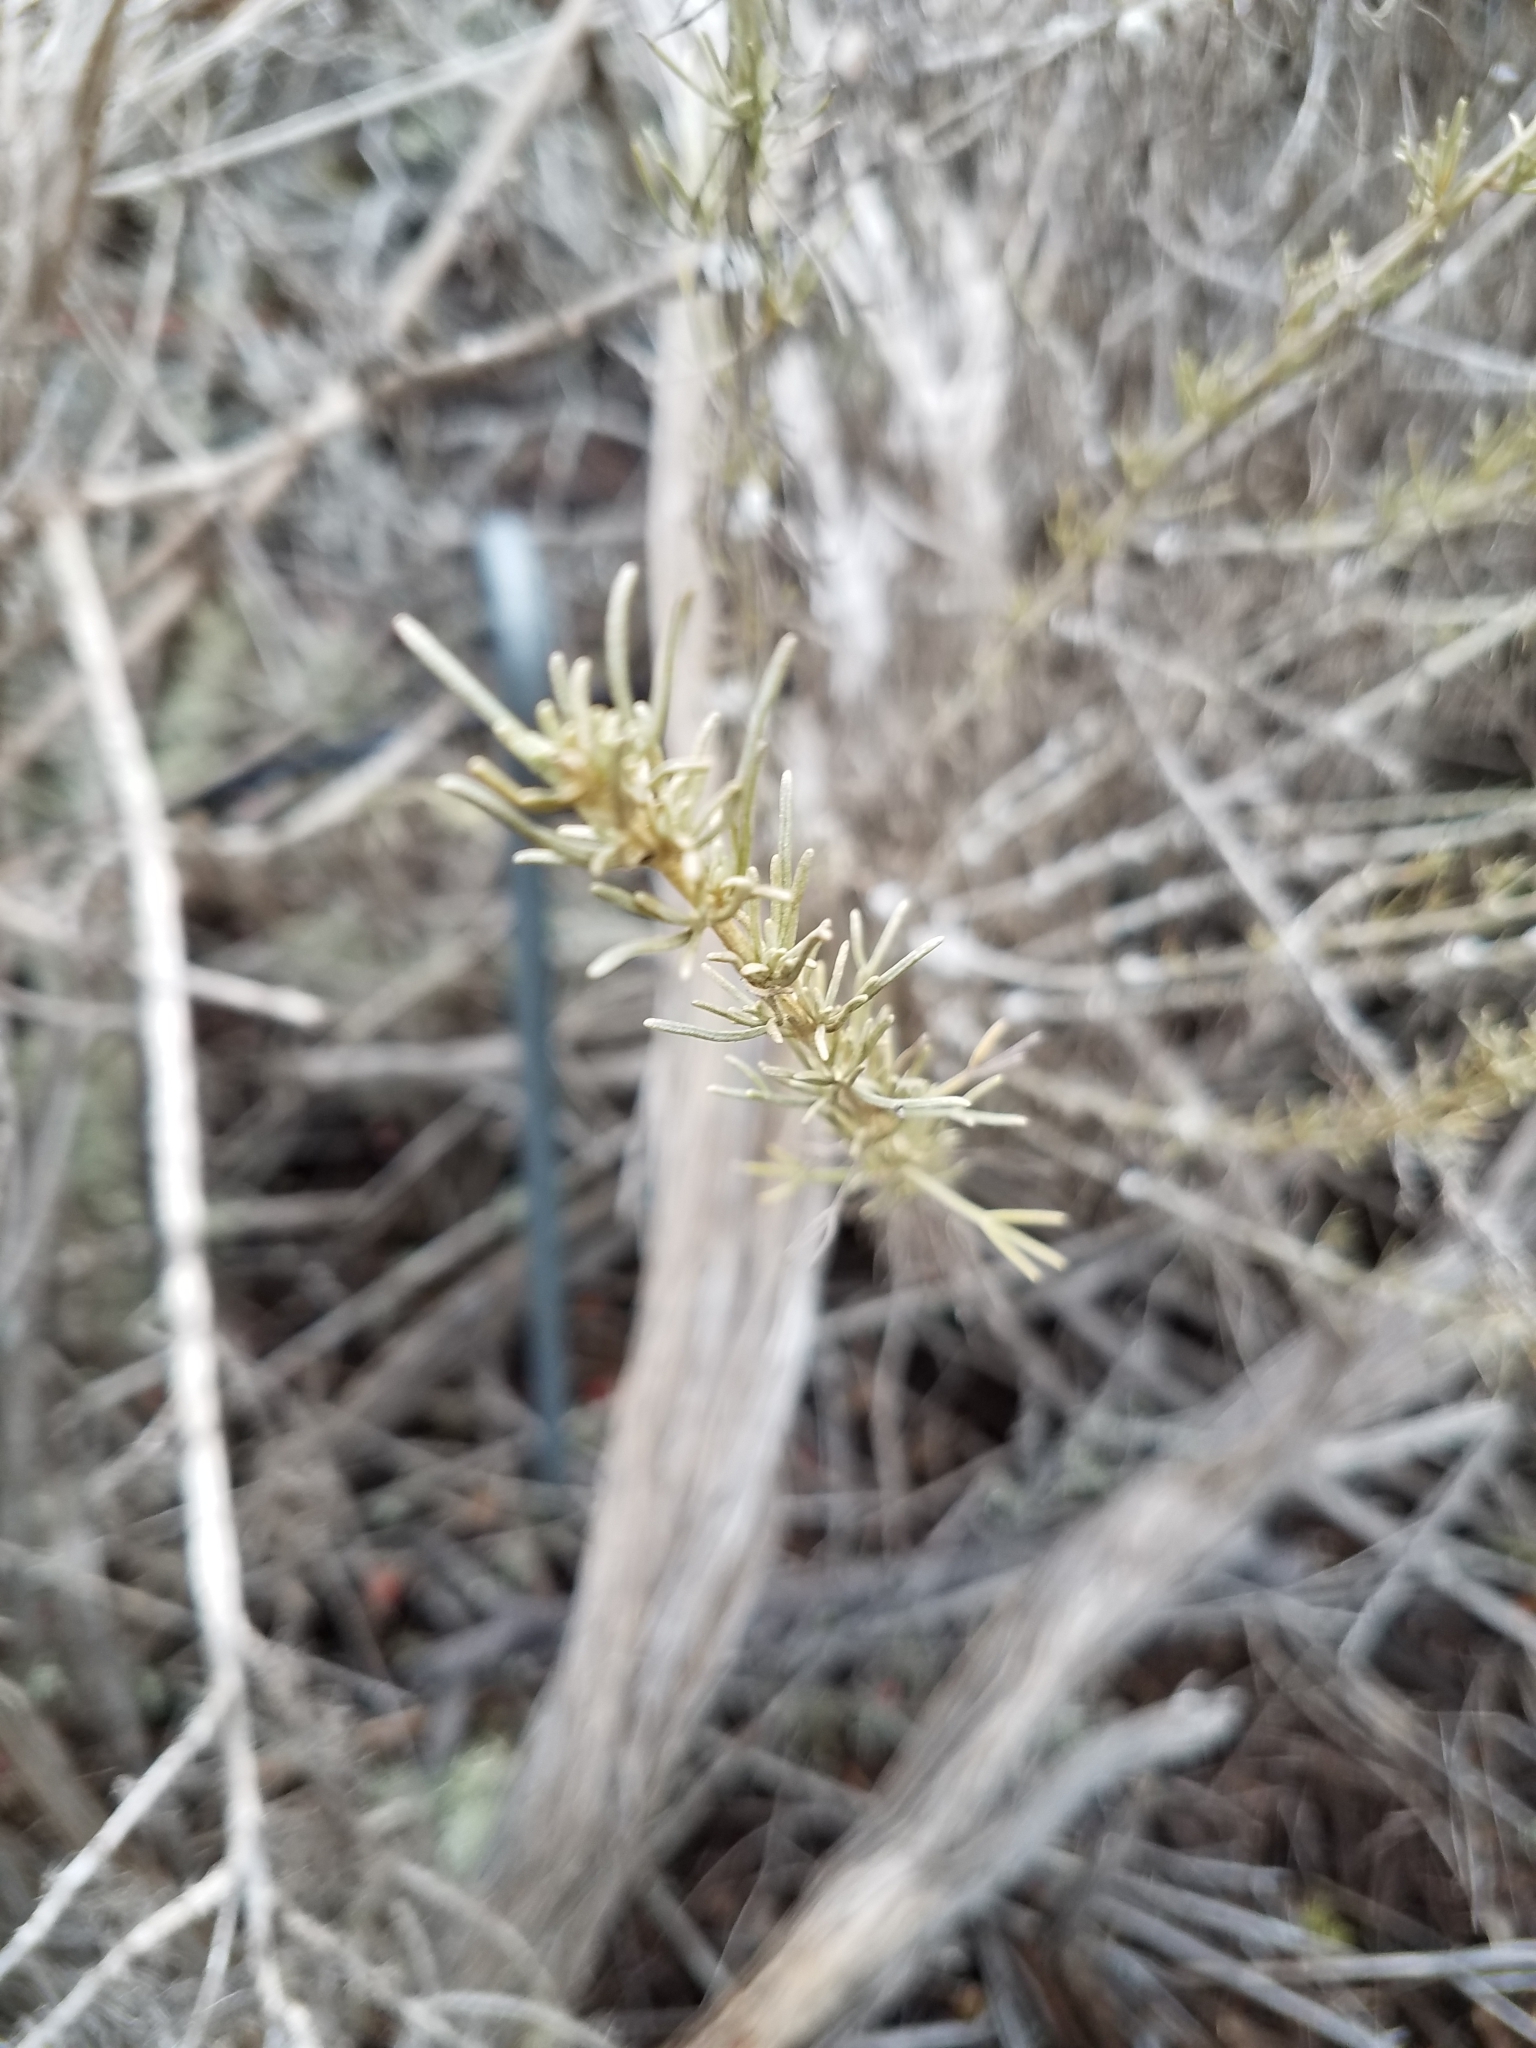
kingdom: Plantae
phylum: Tracheophyta
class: Magnoliopsida
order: Asterales
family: Asteraceae
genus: Artemisia
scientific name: Artemisia californica
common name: California sagebrush
